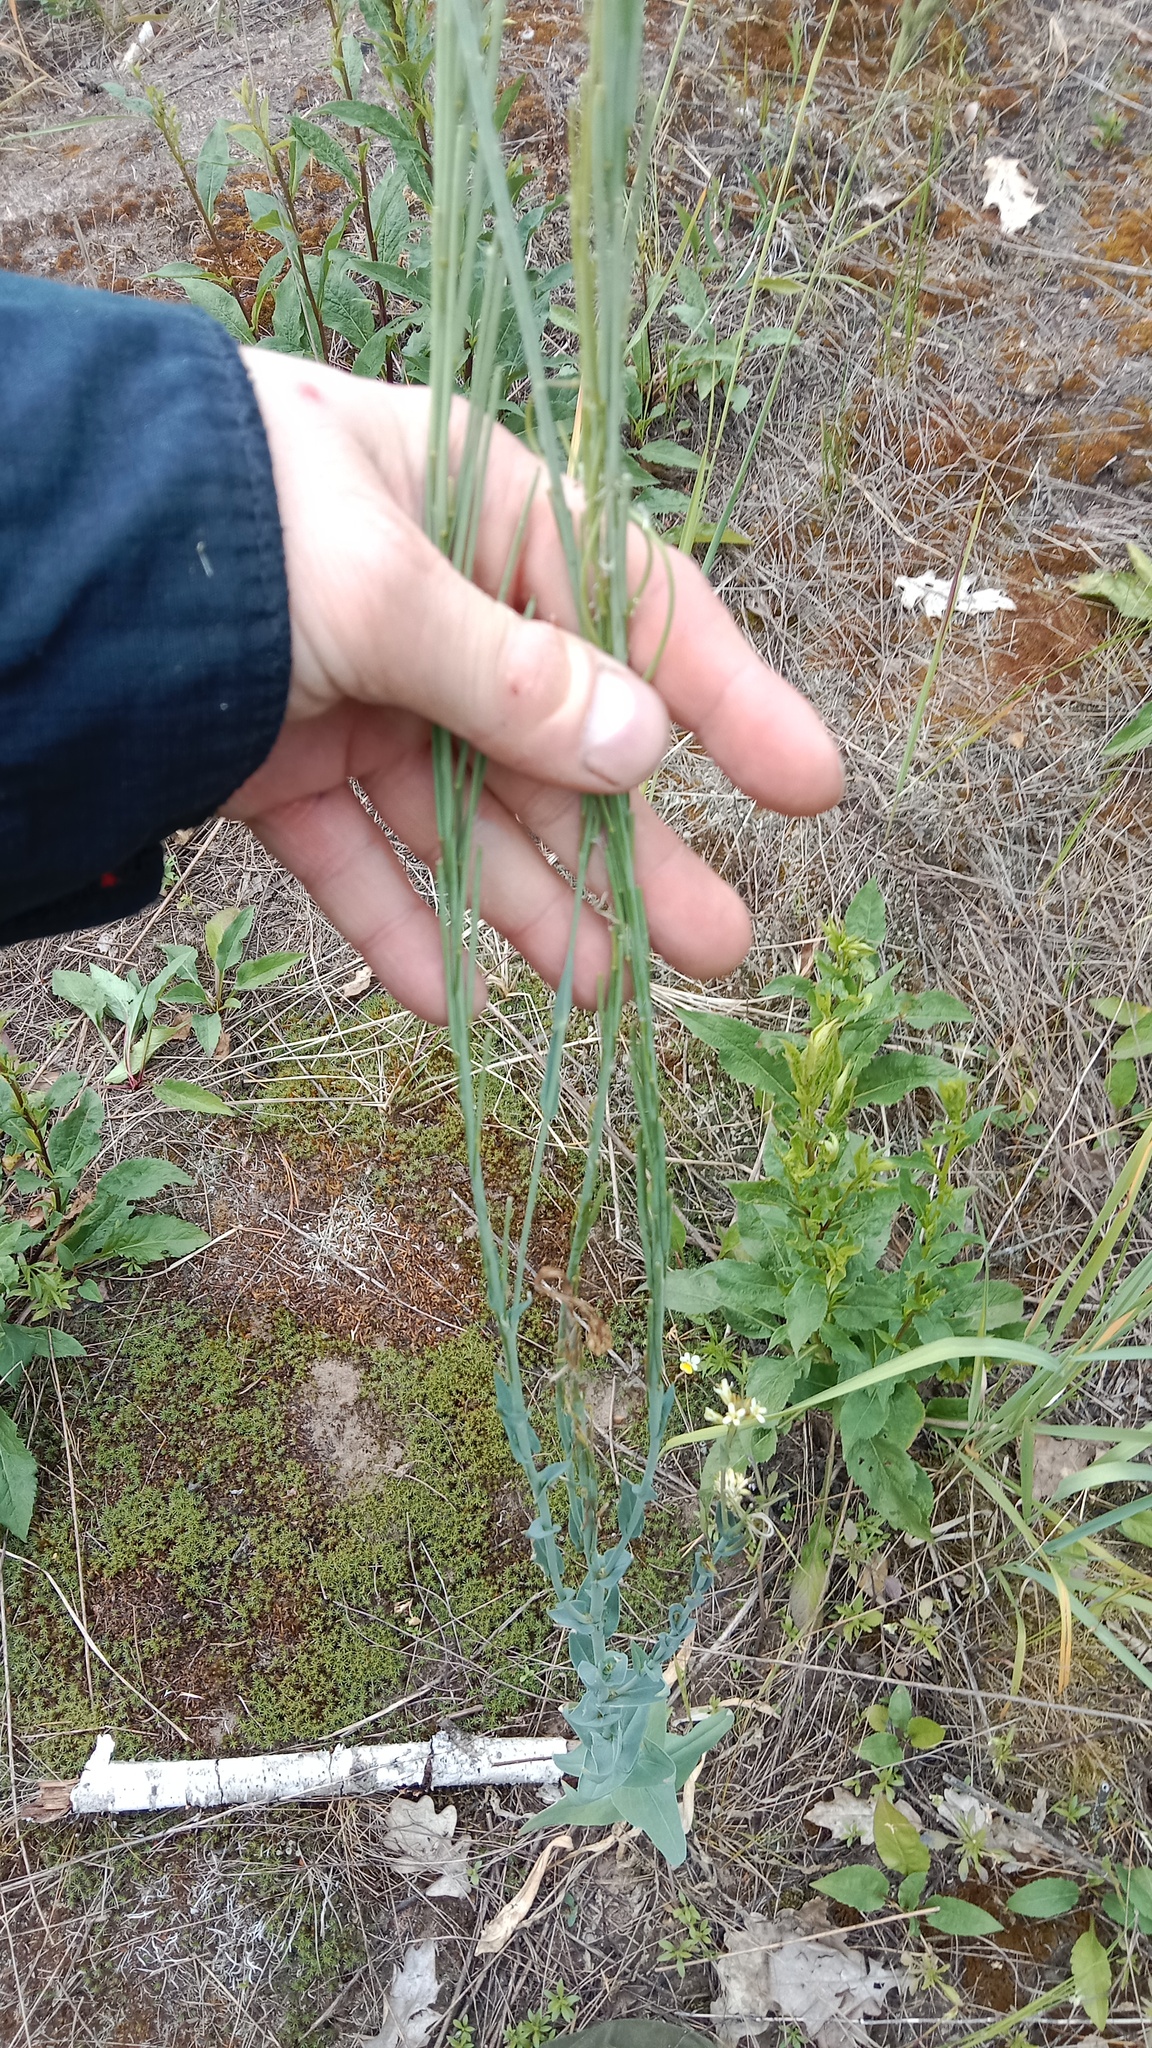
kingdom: Plantae
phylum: Tracheophyta
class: Magnoliopsida
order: Brassicales
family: Brassicaceae
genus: Turritis
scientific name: Turritis glabra
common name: Tower rockcress
